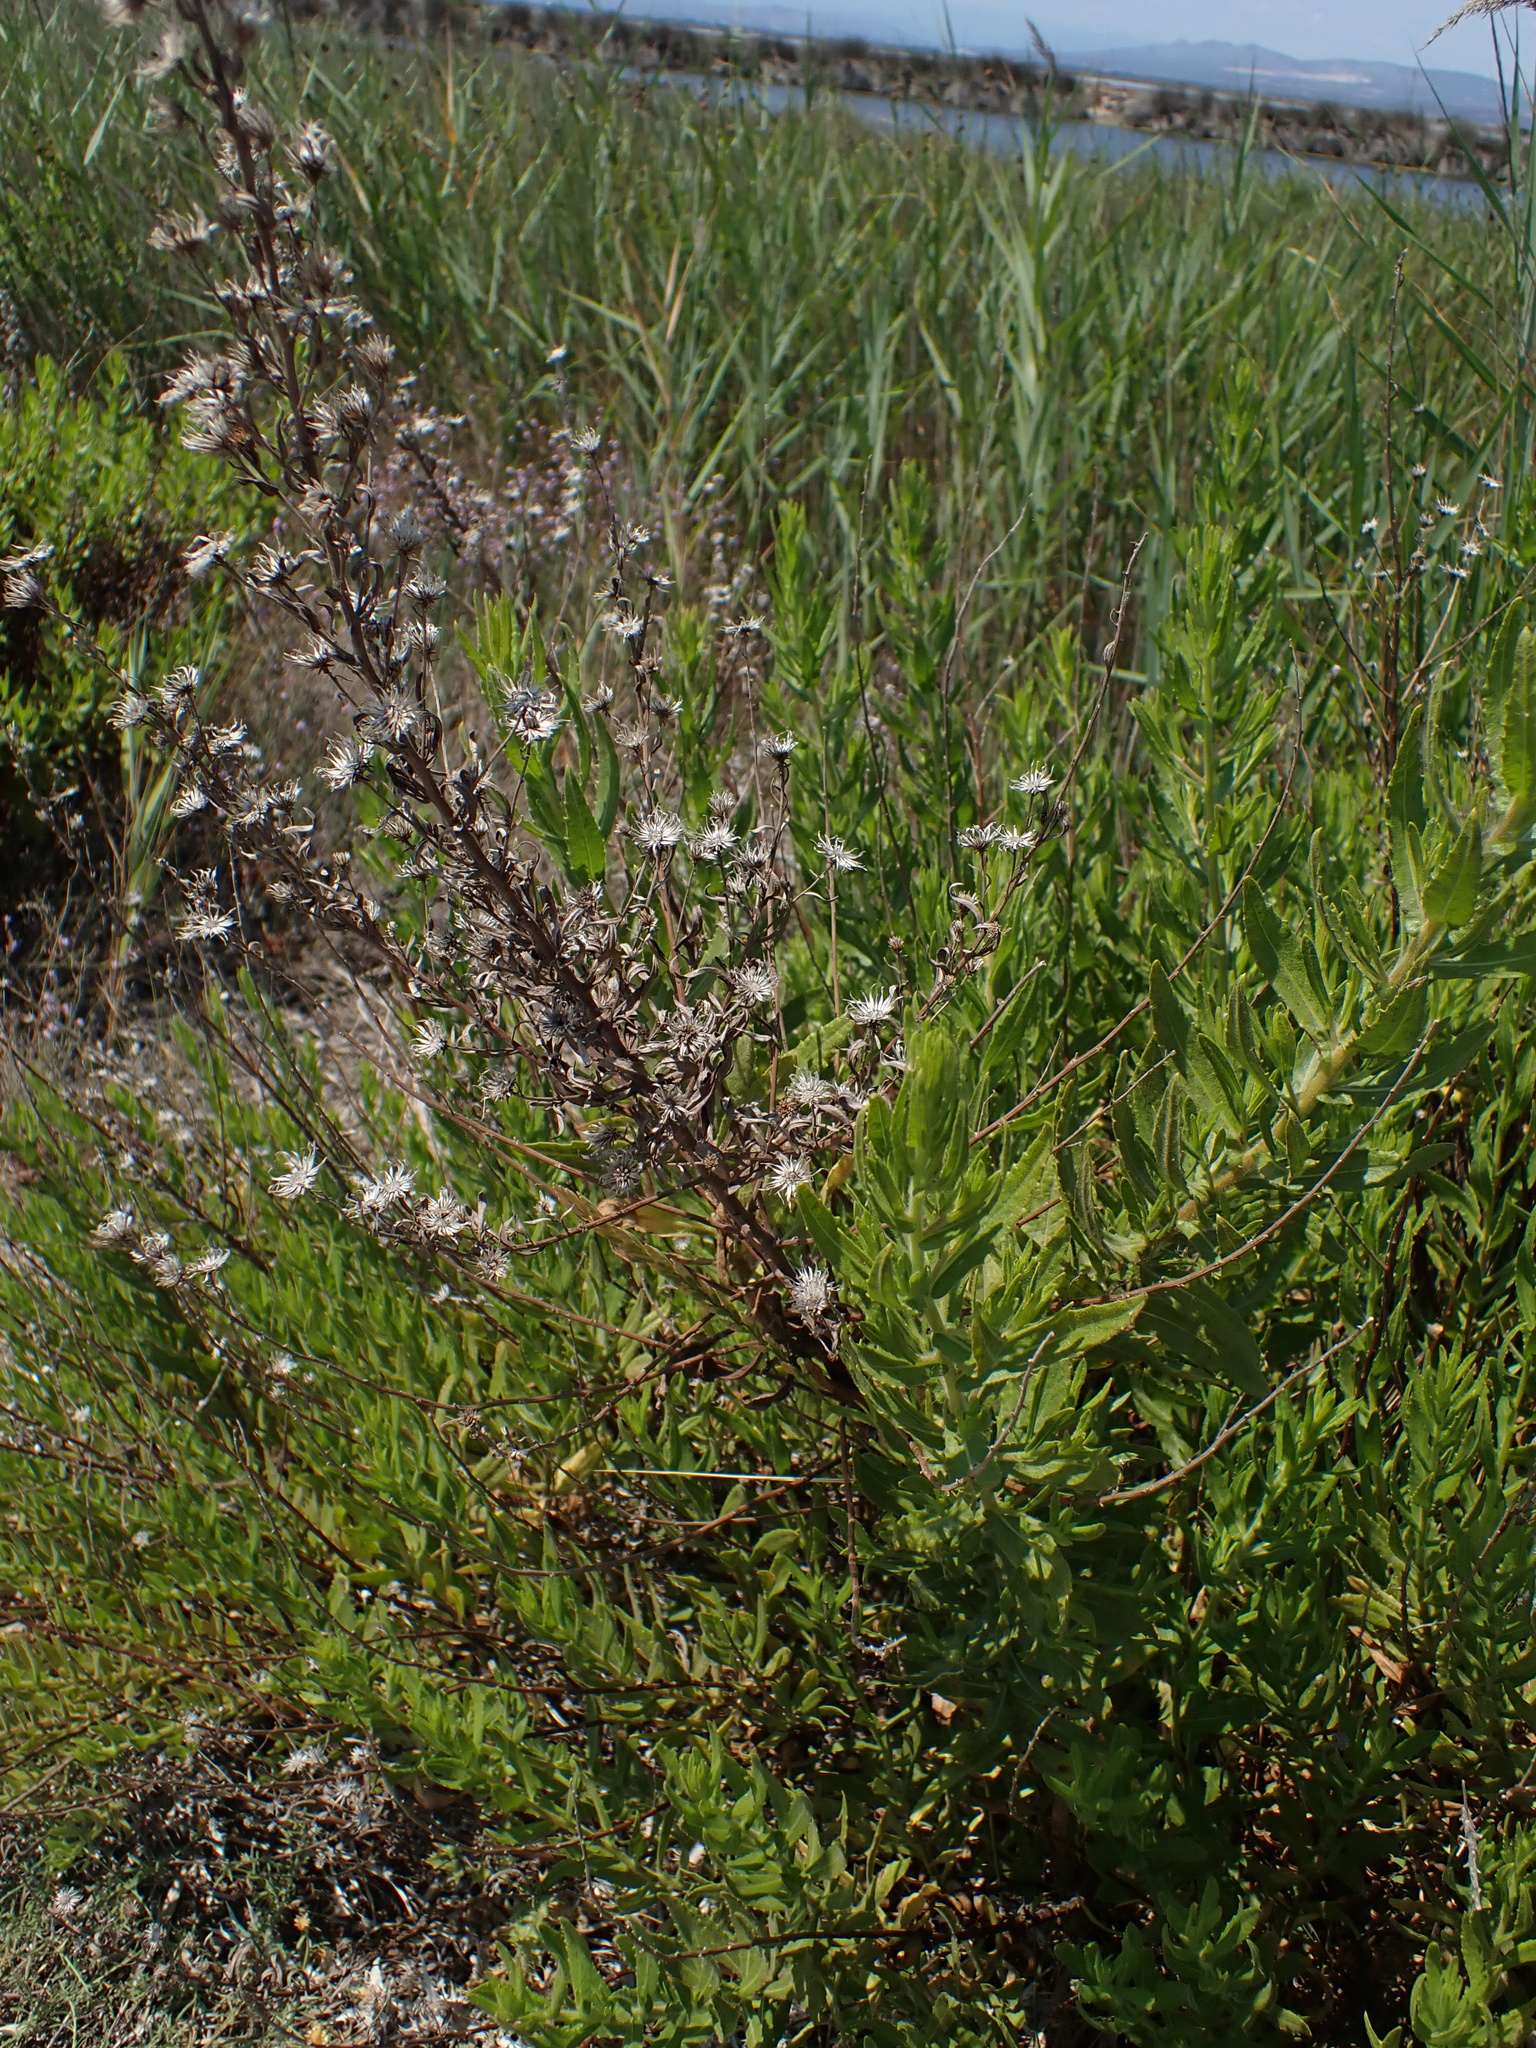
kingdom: Plantae
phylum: Tracheophyta
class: Magnoliopsida
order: Asterales
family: Asteraceae
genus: Dittrichia
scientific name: Dittrichia viscosa
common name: Woody fleabane
